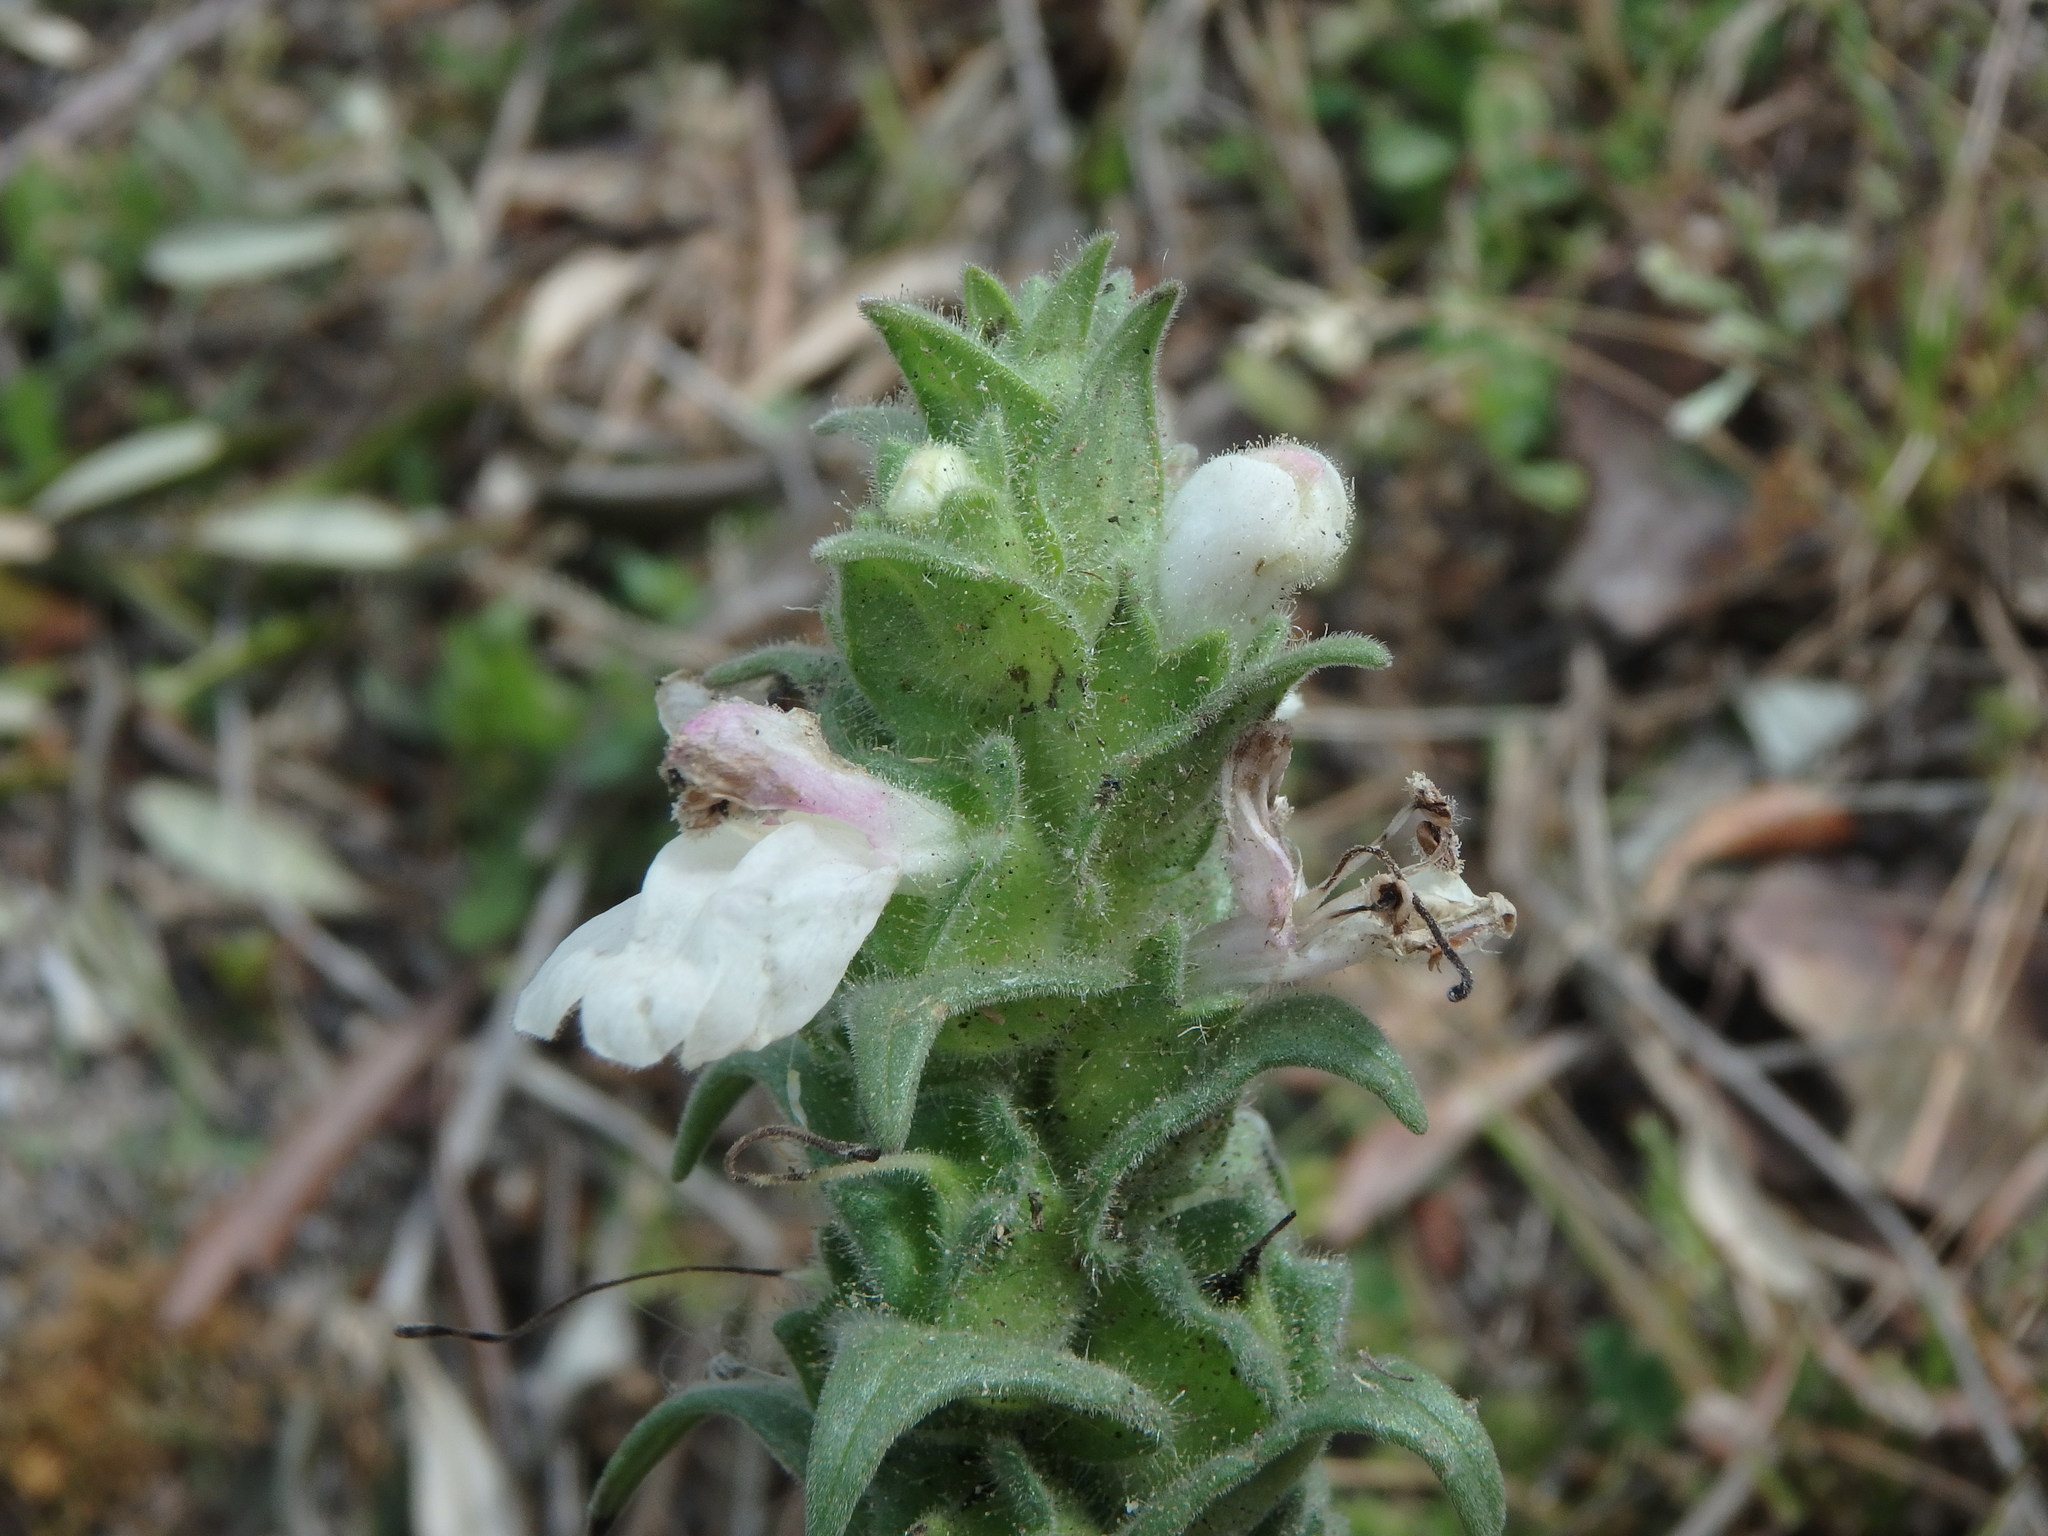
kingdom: Plantae
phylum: Tracheophyta
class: Magnoliopsida
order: Lamiales
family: Orobanchaceae
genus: Bellardia
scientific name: Bellardia trixago
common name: Mediterranean lineseed
